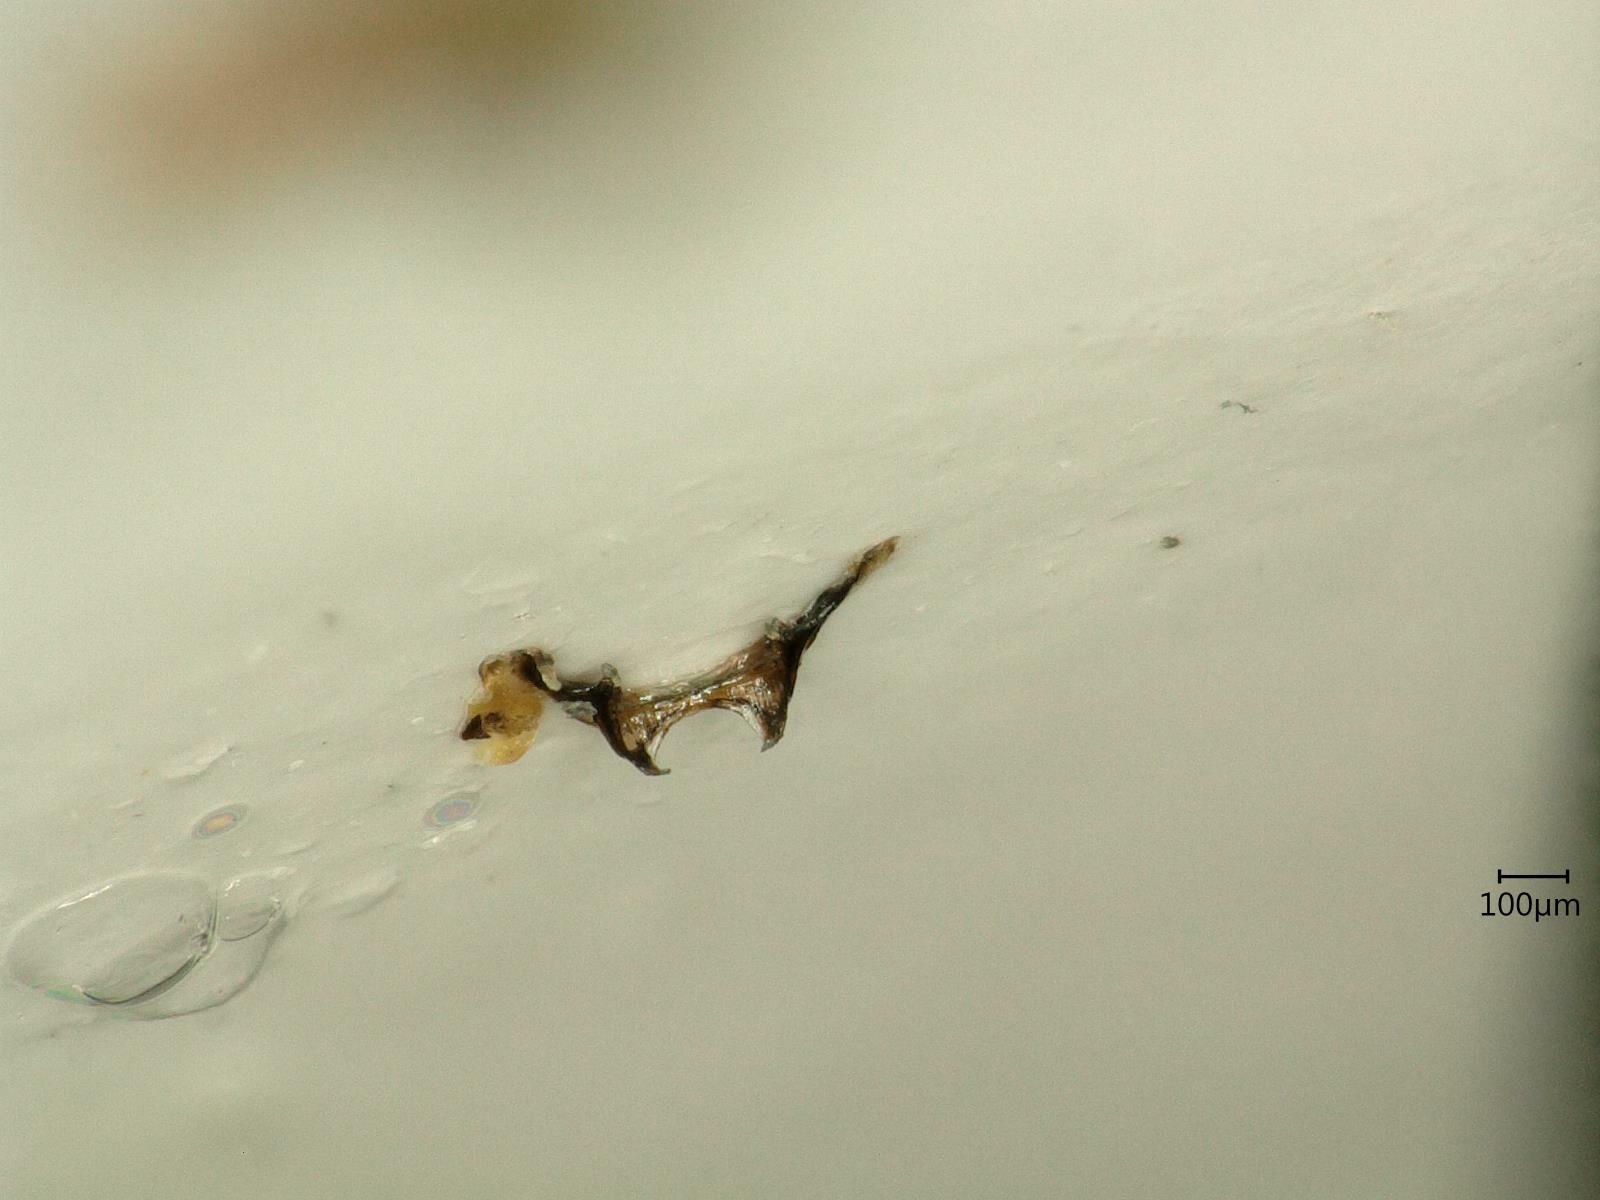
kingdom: Animalia
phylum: Arthropoda
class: Insecta
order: Hemiptera
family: Cicadellidae
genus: Macrosteles
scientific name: Macrosteles sexnotatus
